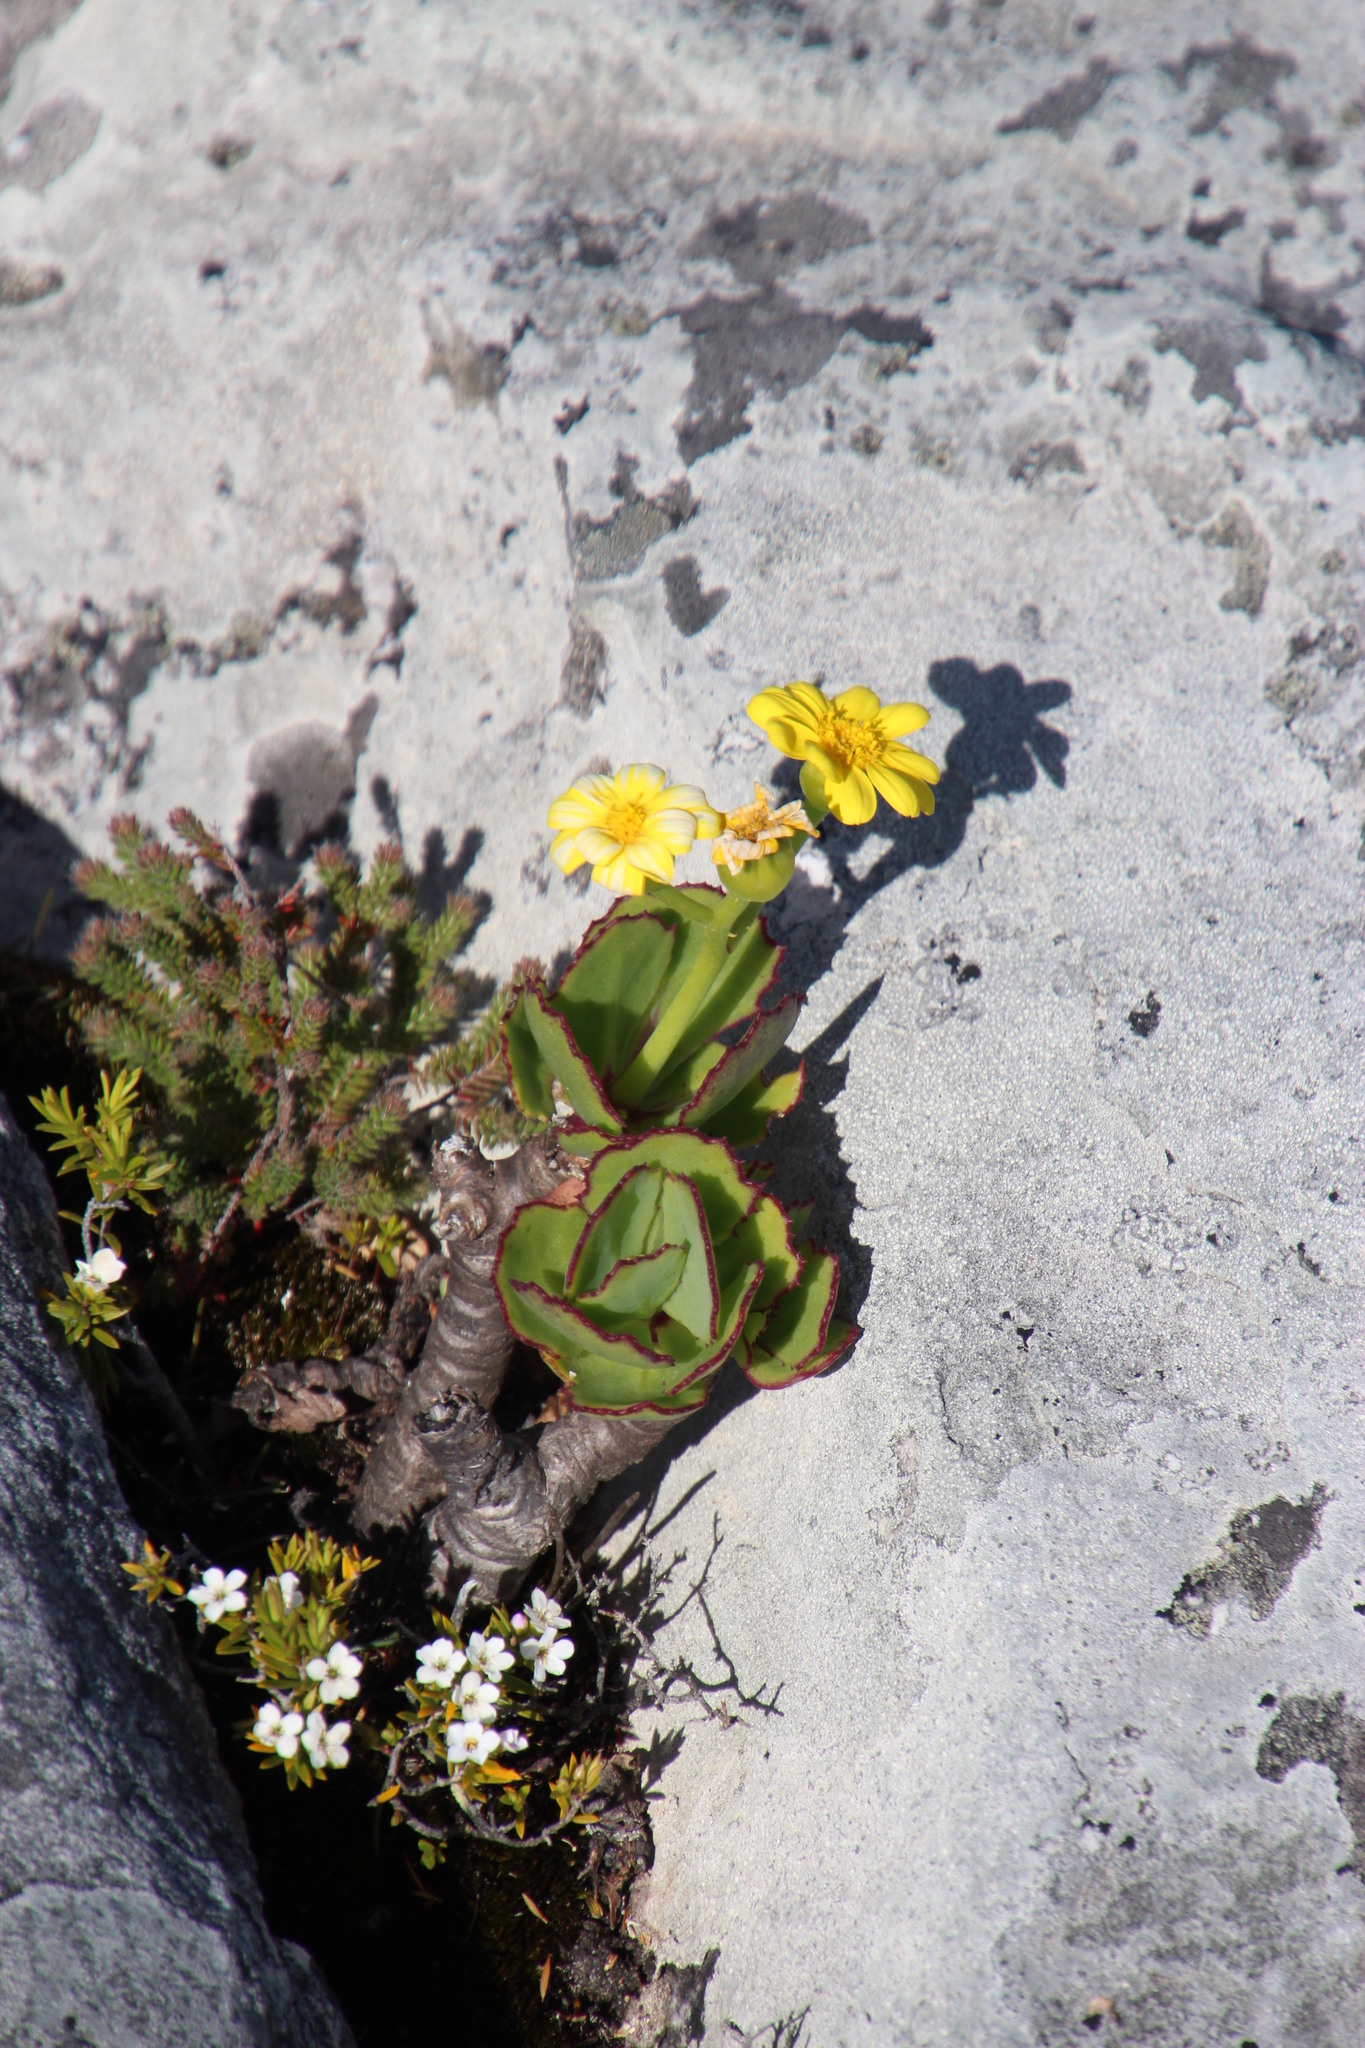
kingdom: Plantae
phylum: Tracheophyta
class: Magnoliopsida
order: Asterales
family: Asteraceae
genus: Othonna
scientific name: Othonna dentata
